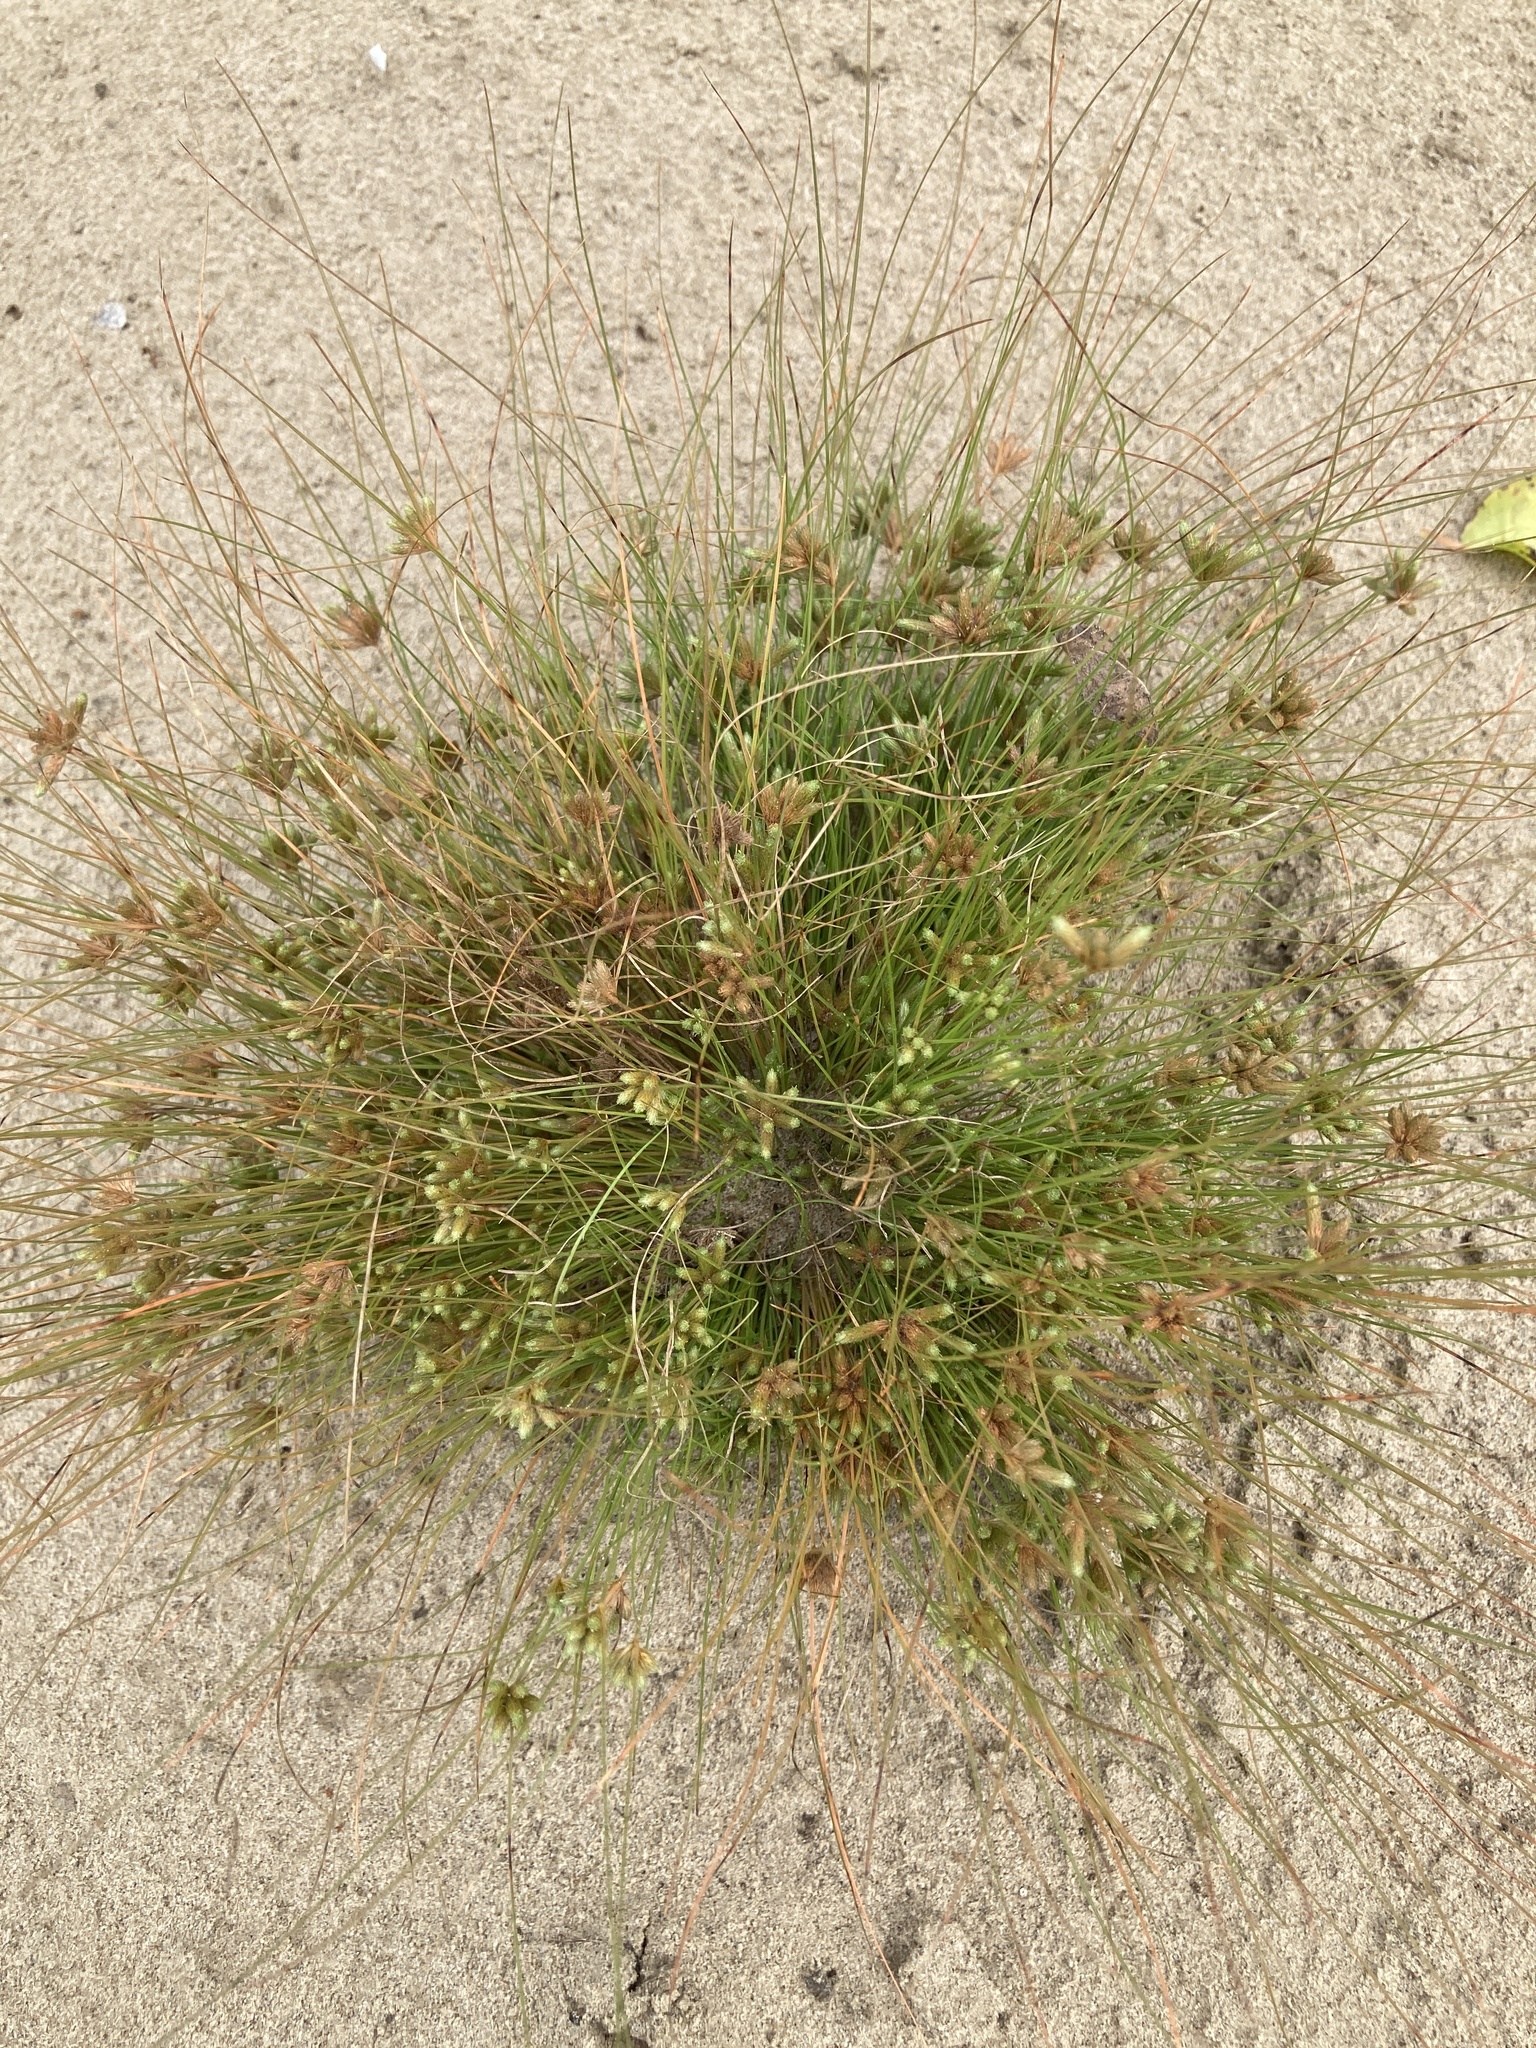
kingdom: Plantae
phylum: Tracheophyta
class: Liliopsida
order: Poales
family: Cyperaceae
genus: Fimbristylis
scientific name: Fimbristylis vahlii
